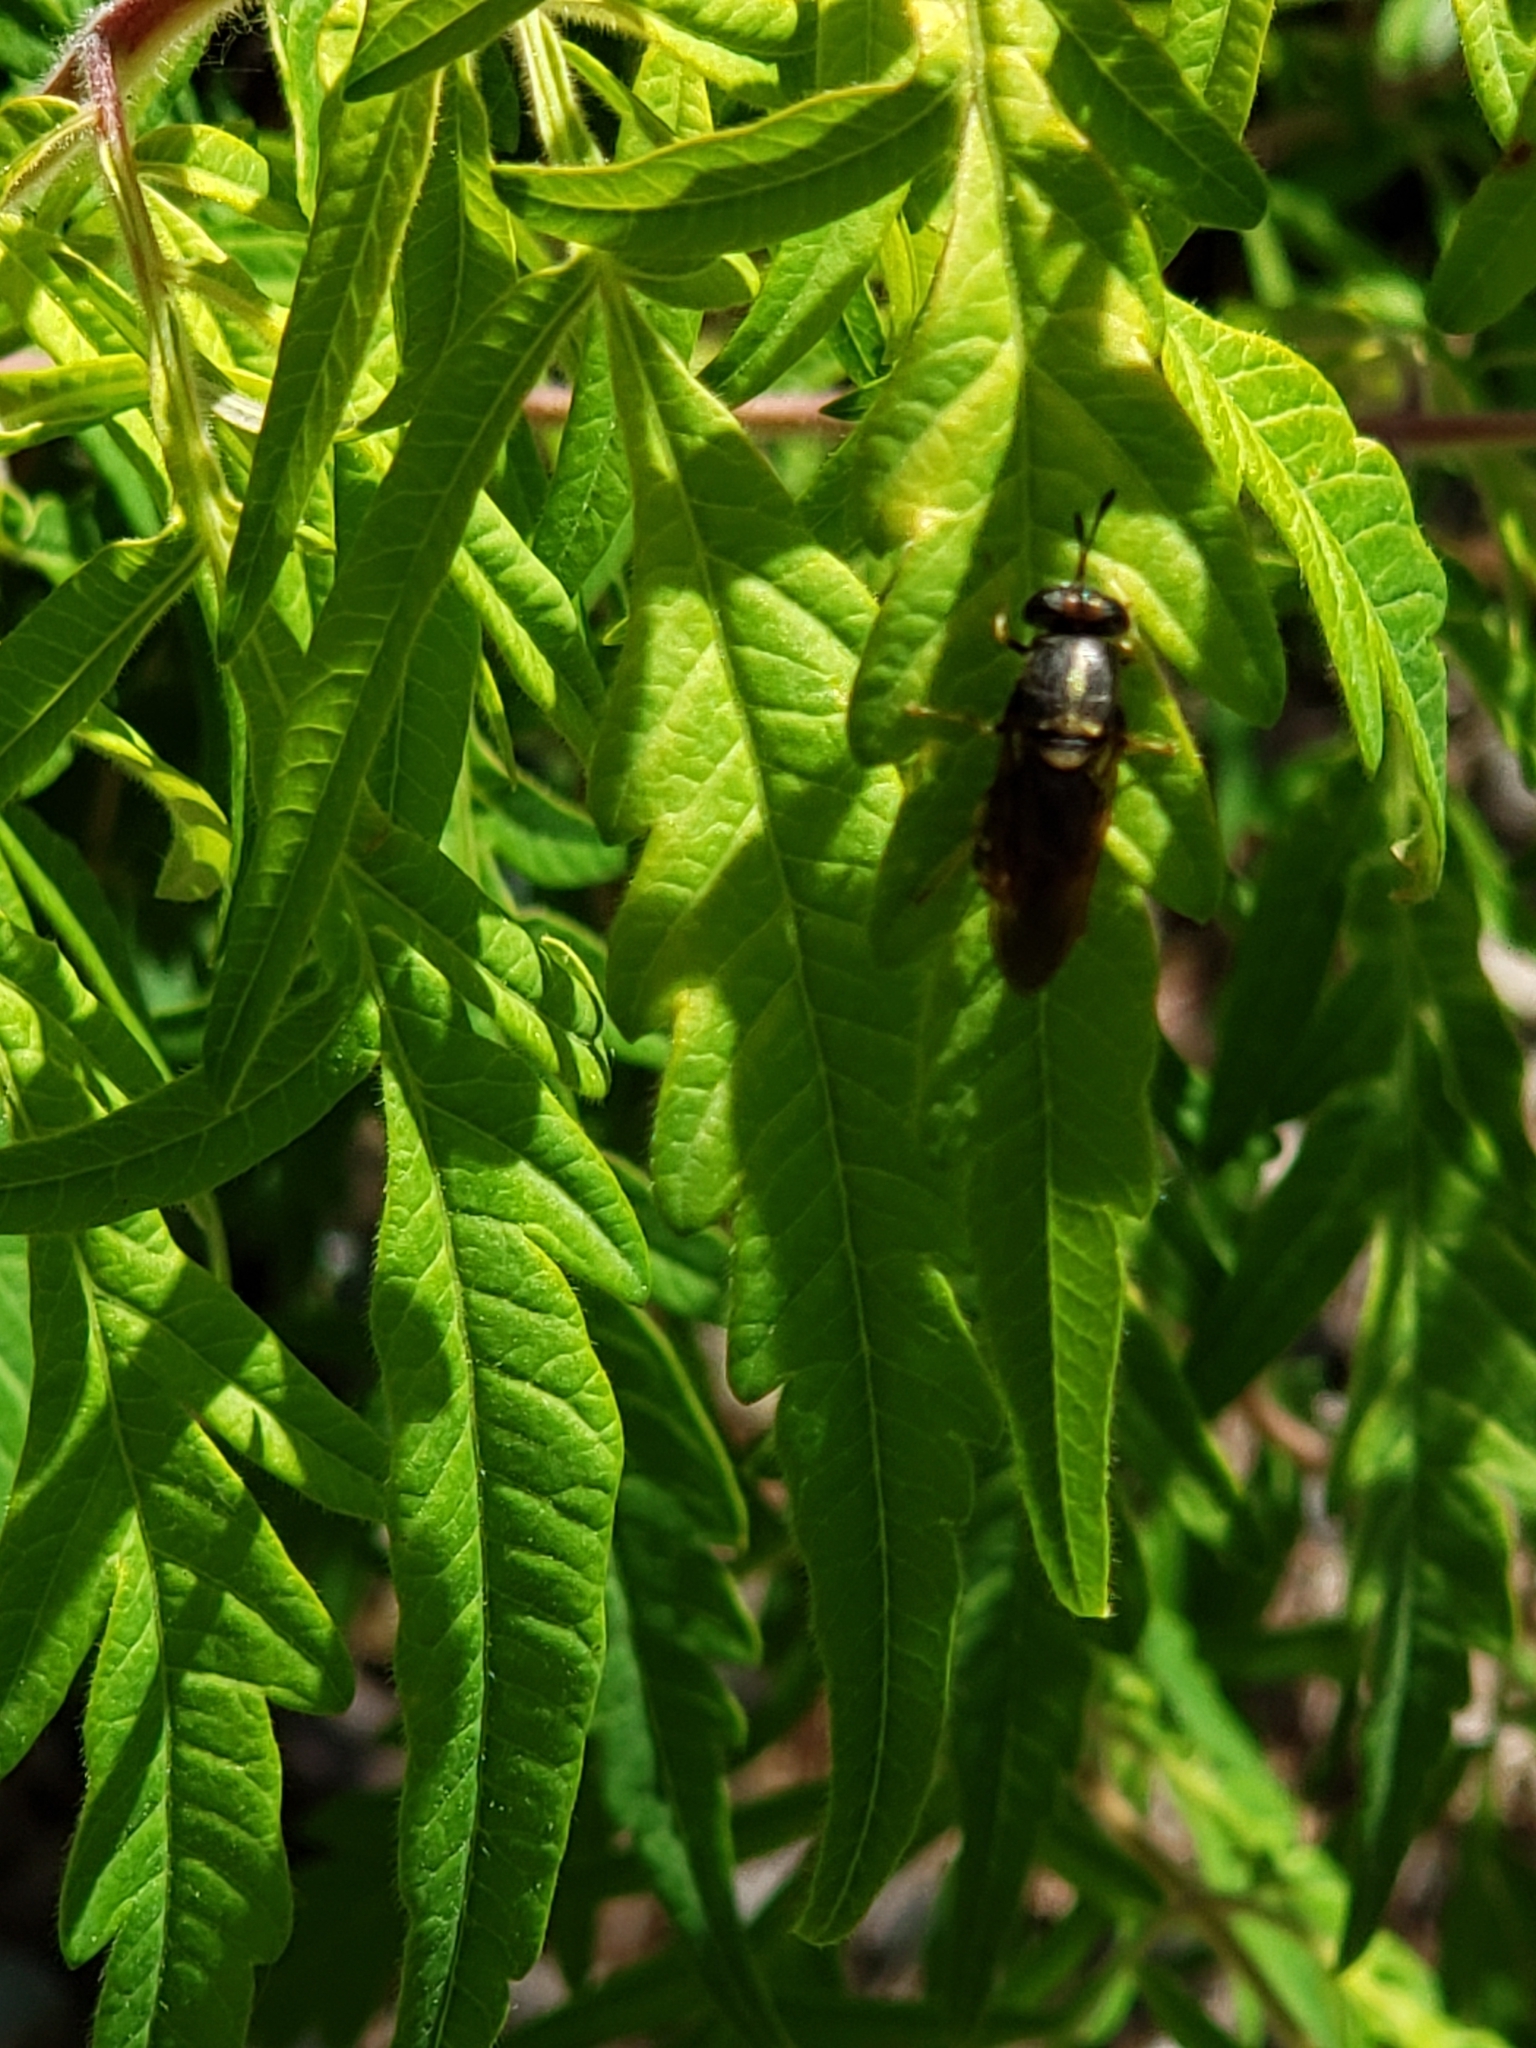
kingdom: Animalia
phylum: Arthropoda
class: Insecta
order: Diptera
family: Stratiomyidae
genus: Hermetia
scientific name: Hermetia chrysopila
